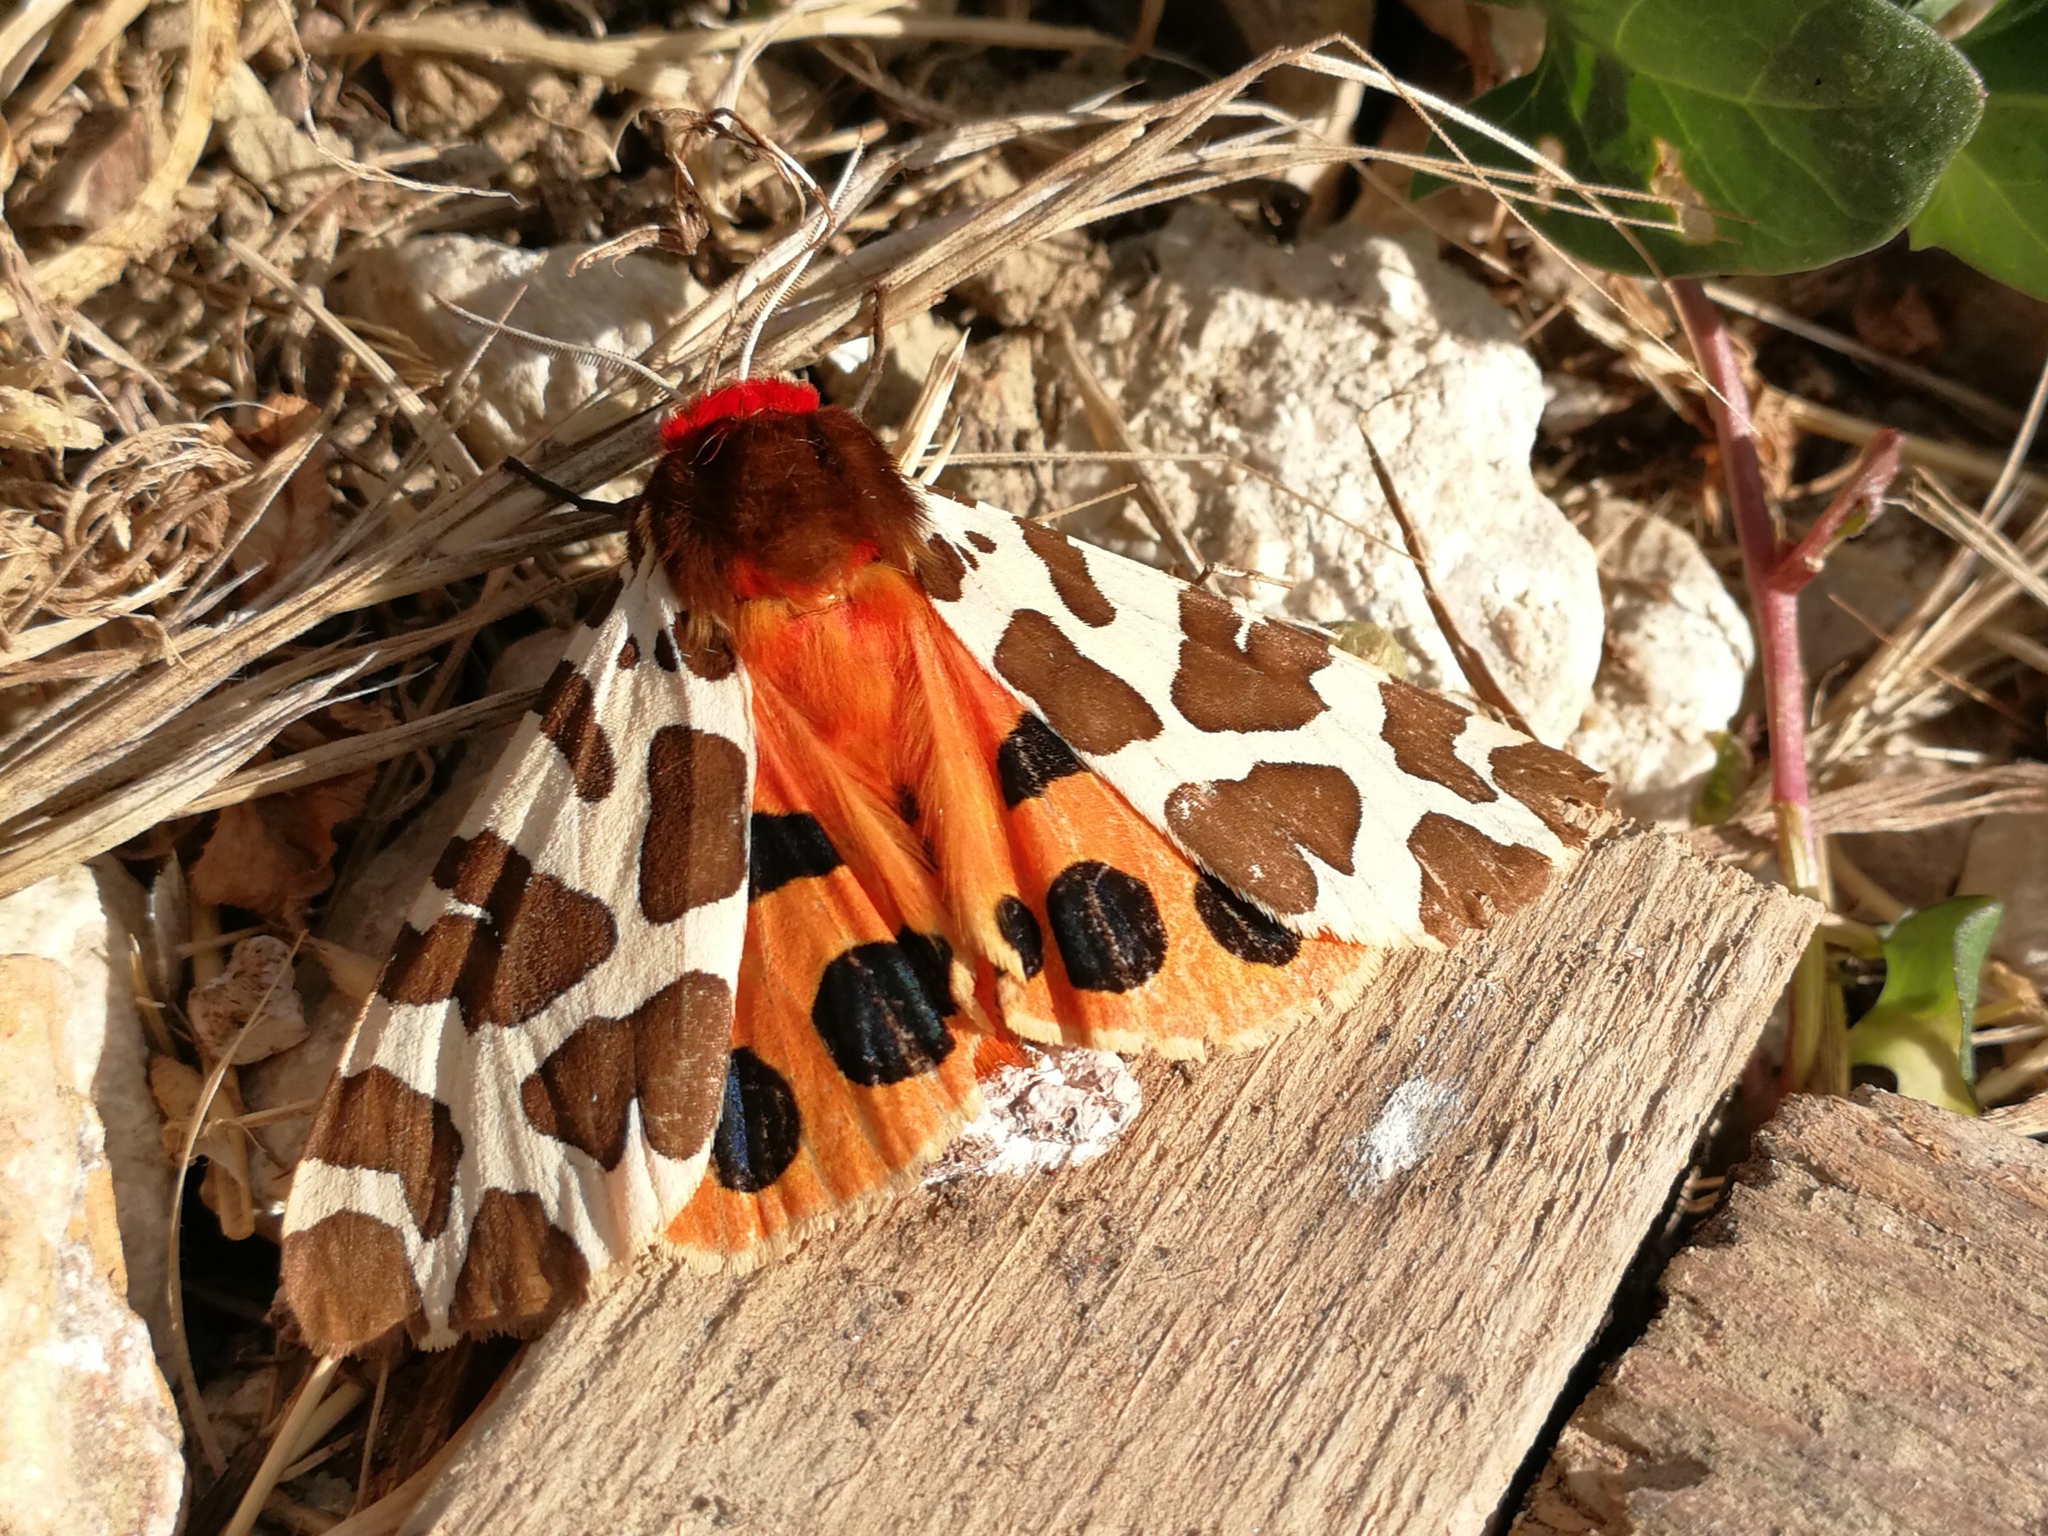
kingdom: Animalia
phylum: Arthropoda
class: Insecta
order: Lepidoptera
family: Erebidae
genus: Arctia
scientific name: Arctia caja
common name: Garden tiger
